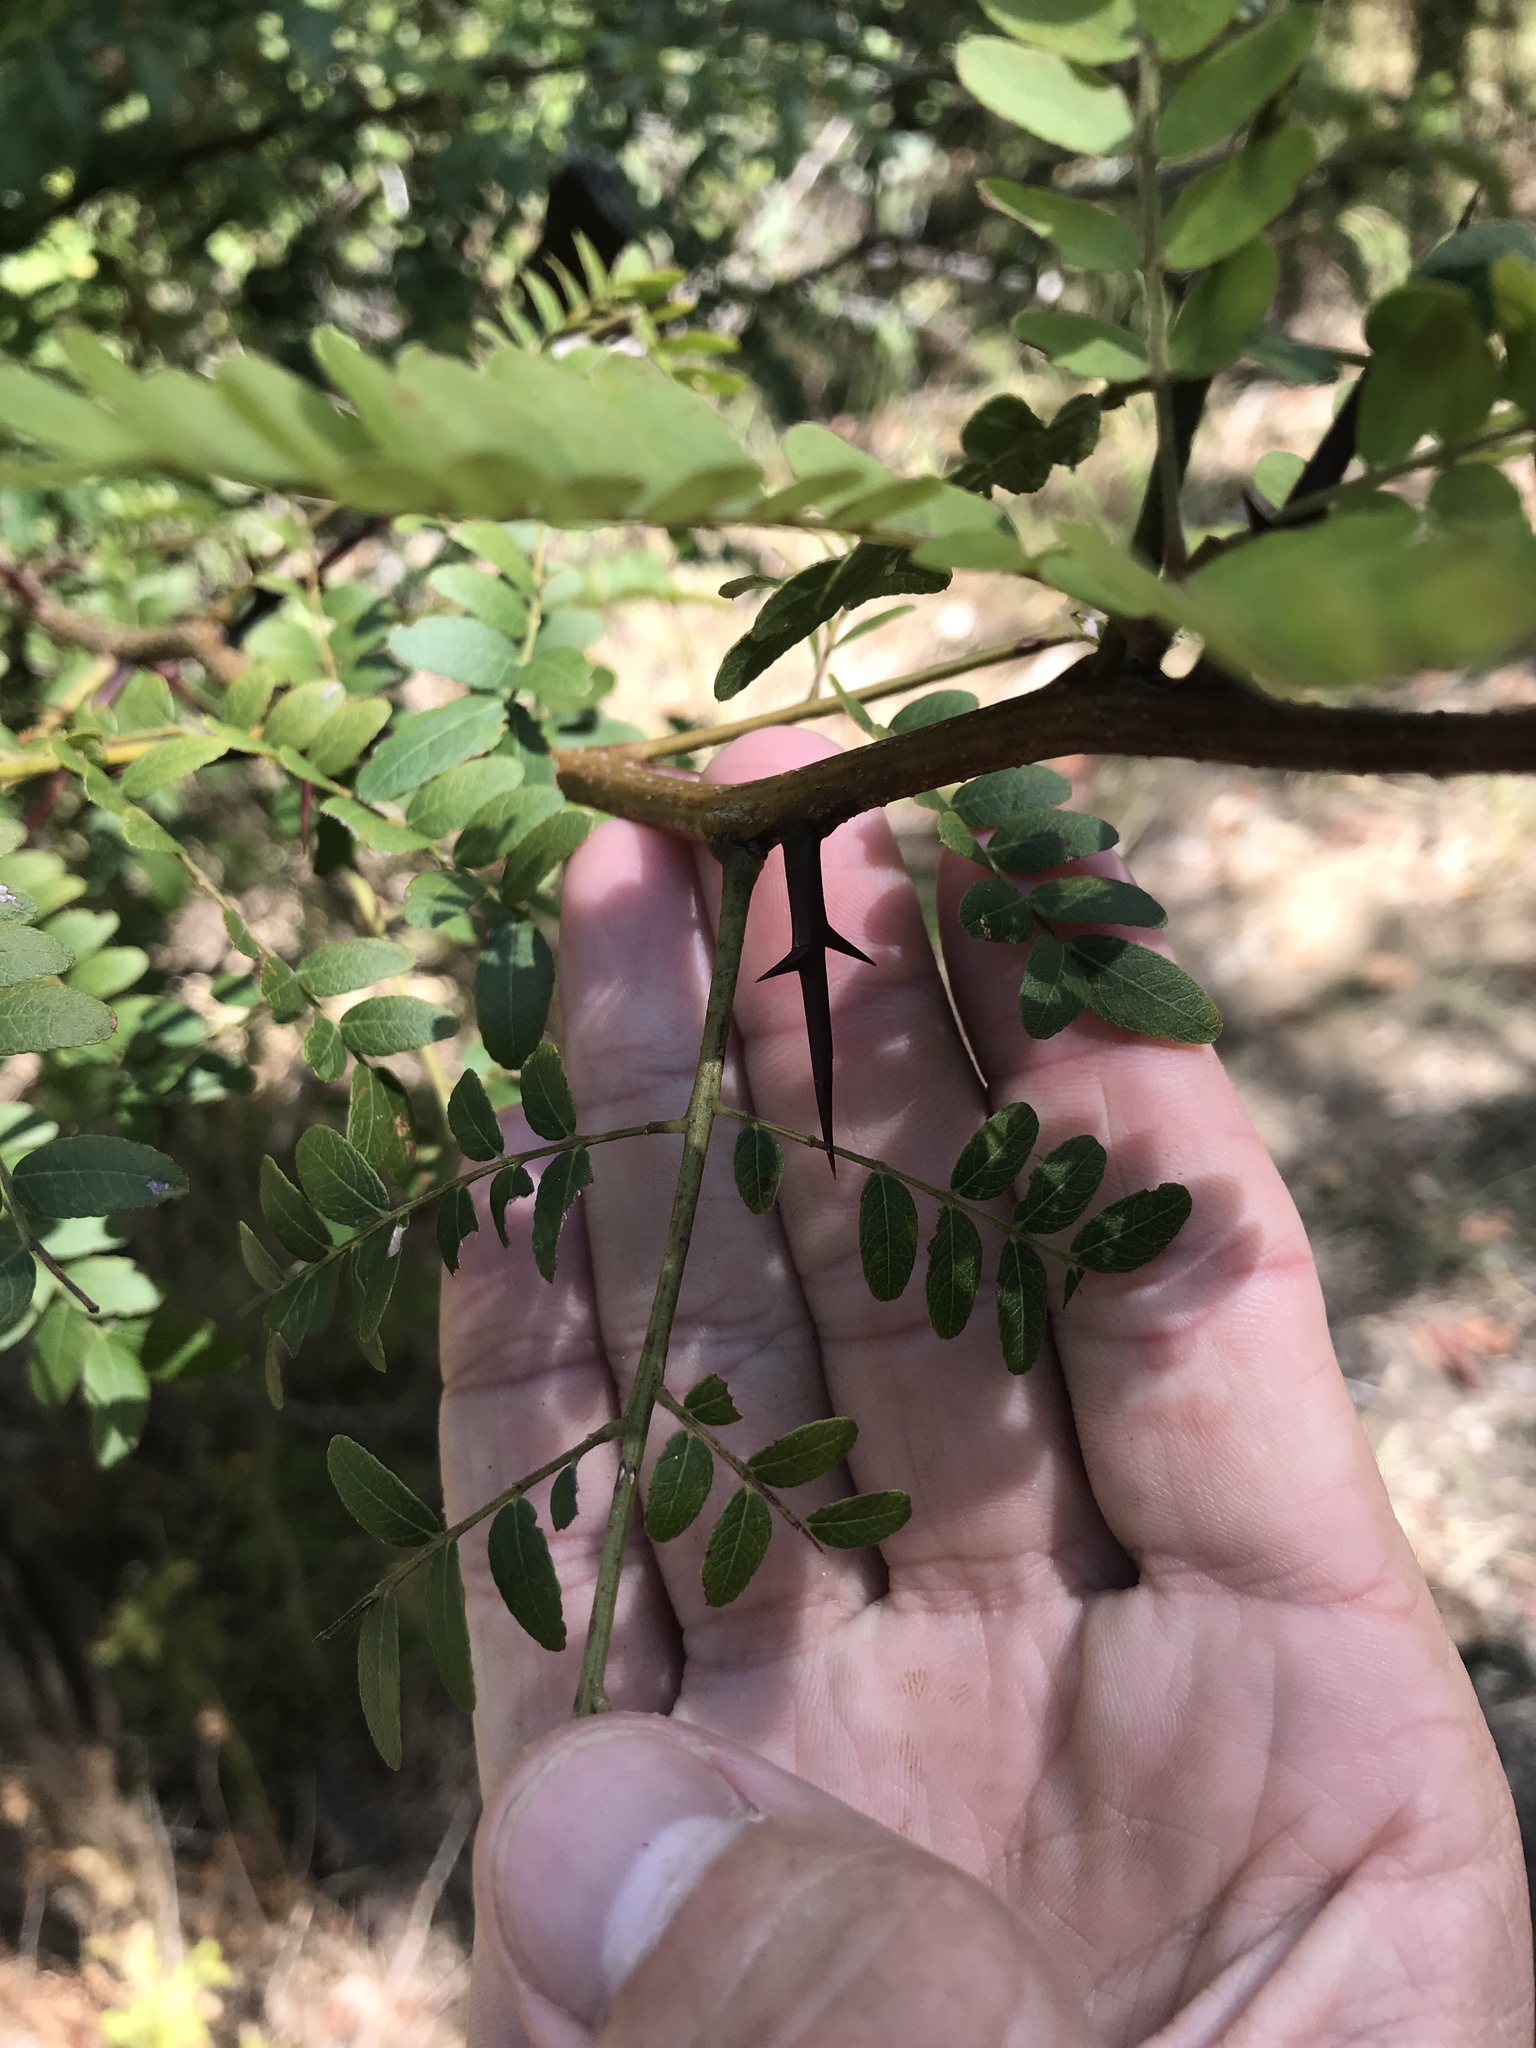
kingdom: Plantae
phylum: Tracheophyta
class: Magnoliopsida
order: Fabales
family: Fabaceae
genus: Gleditsia
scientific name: Gleditsia triacanthos
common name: Common honeylocust
